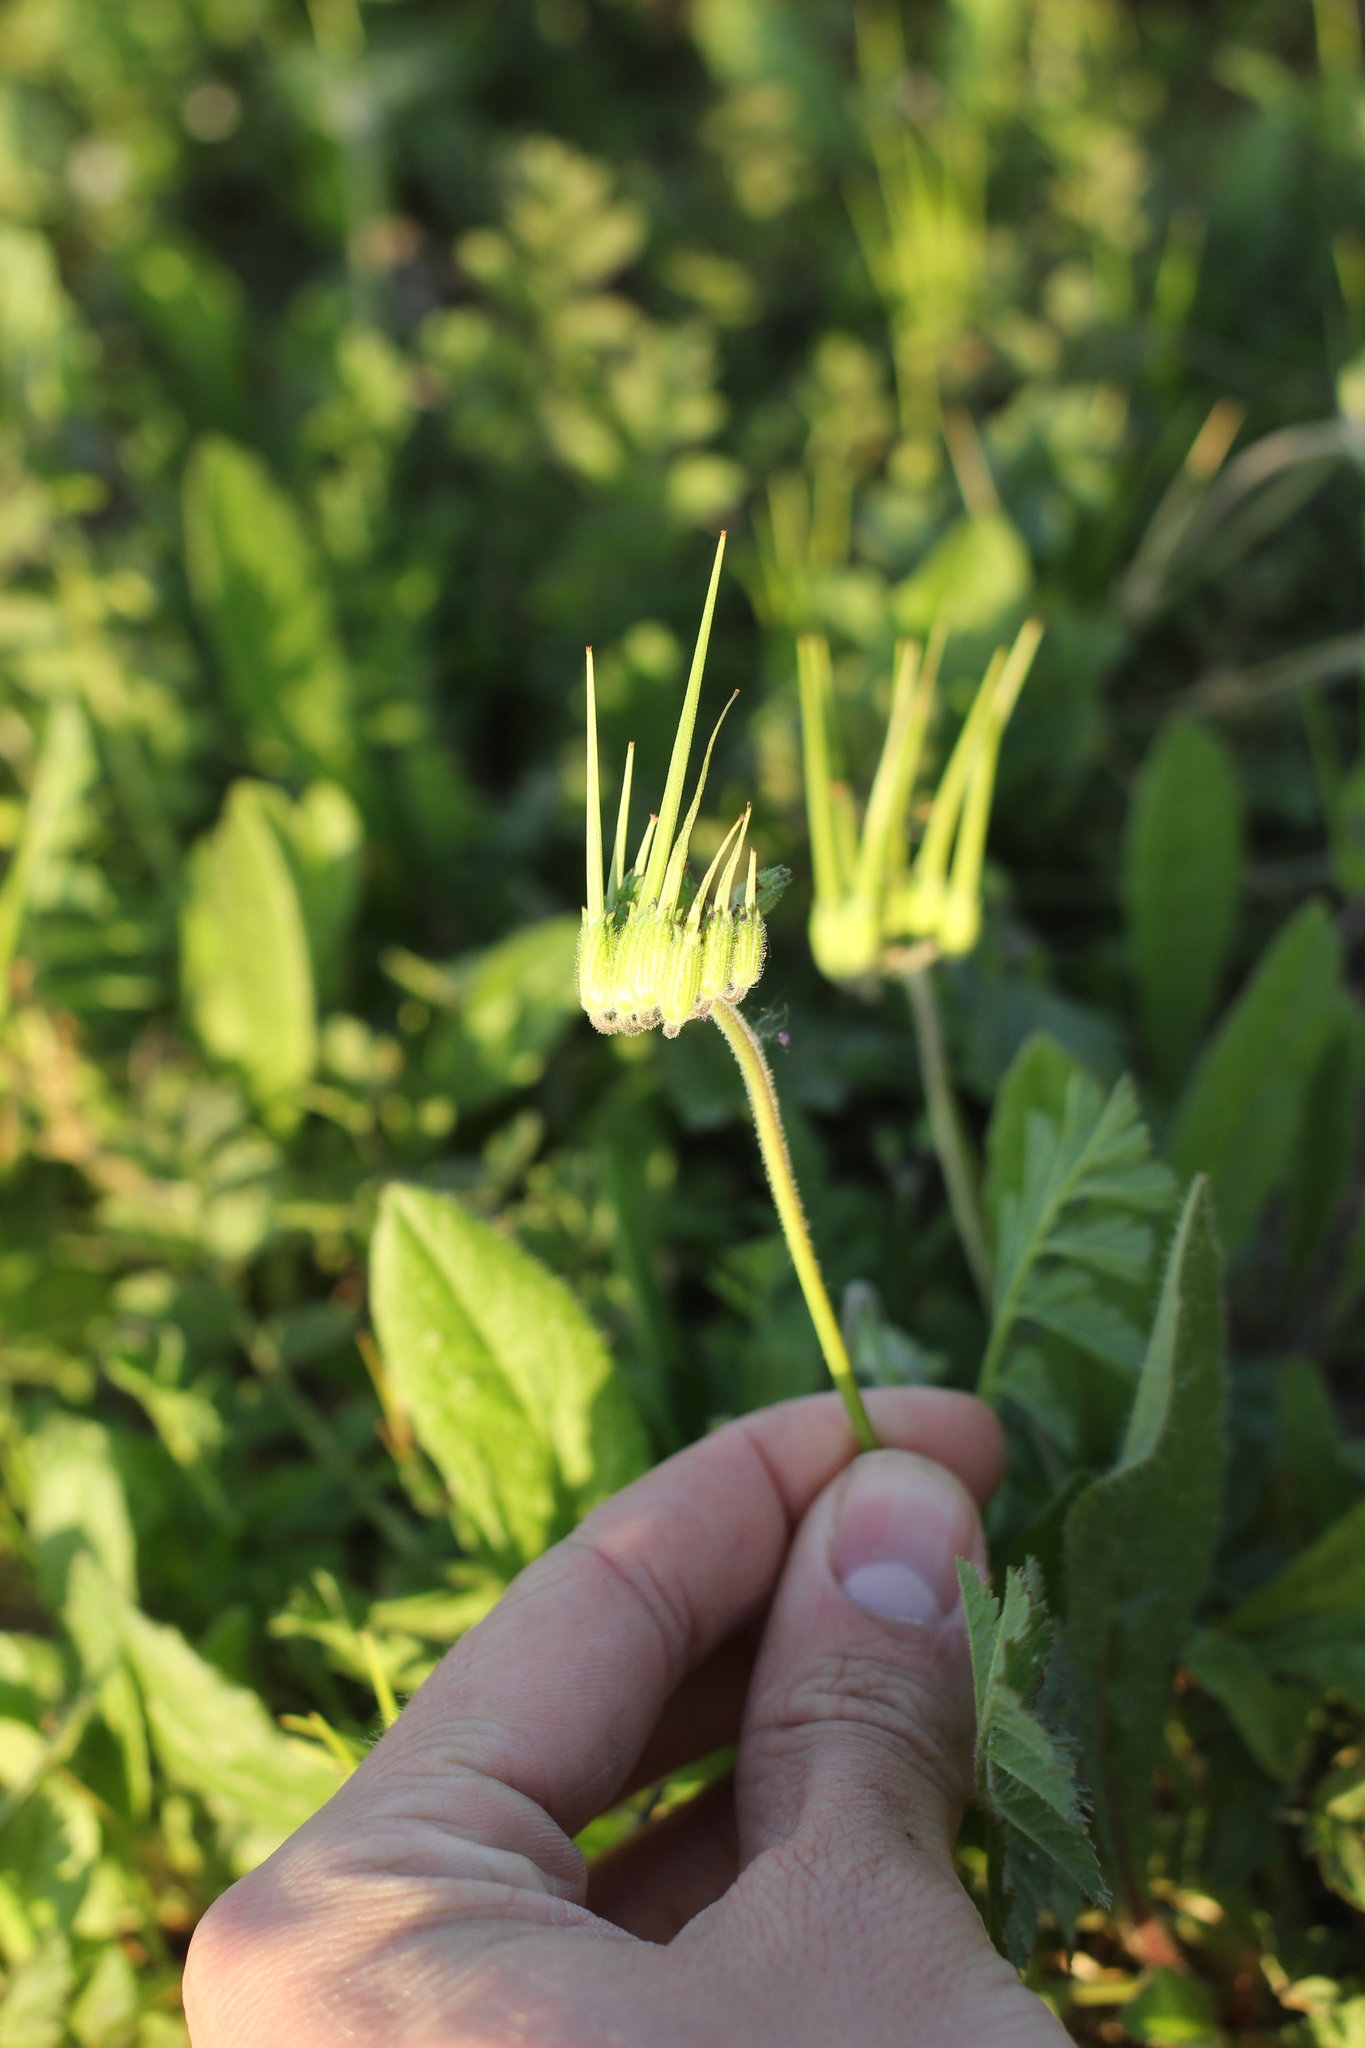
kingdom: Plantae
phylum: Tracheophyta
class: Magnoliopsida
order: Geraniales
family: Geraniaceae
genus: Erodium
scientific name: Erodium moschatum
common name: Musk stork's-bill
